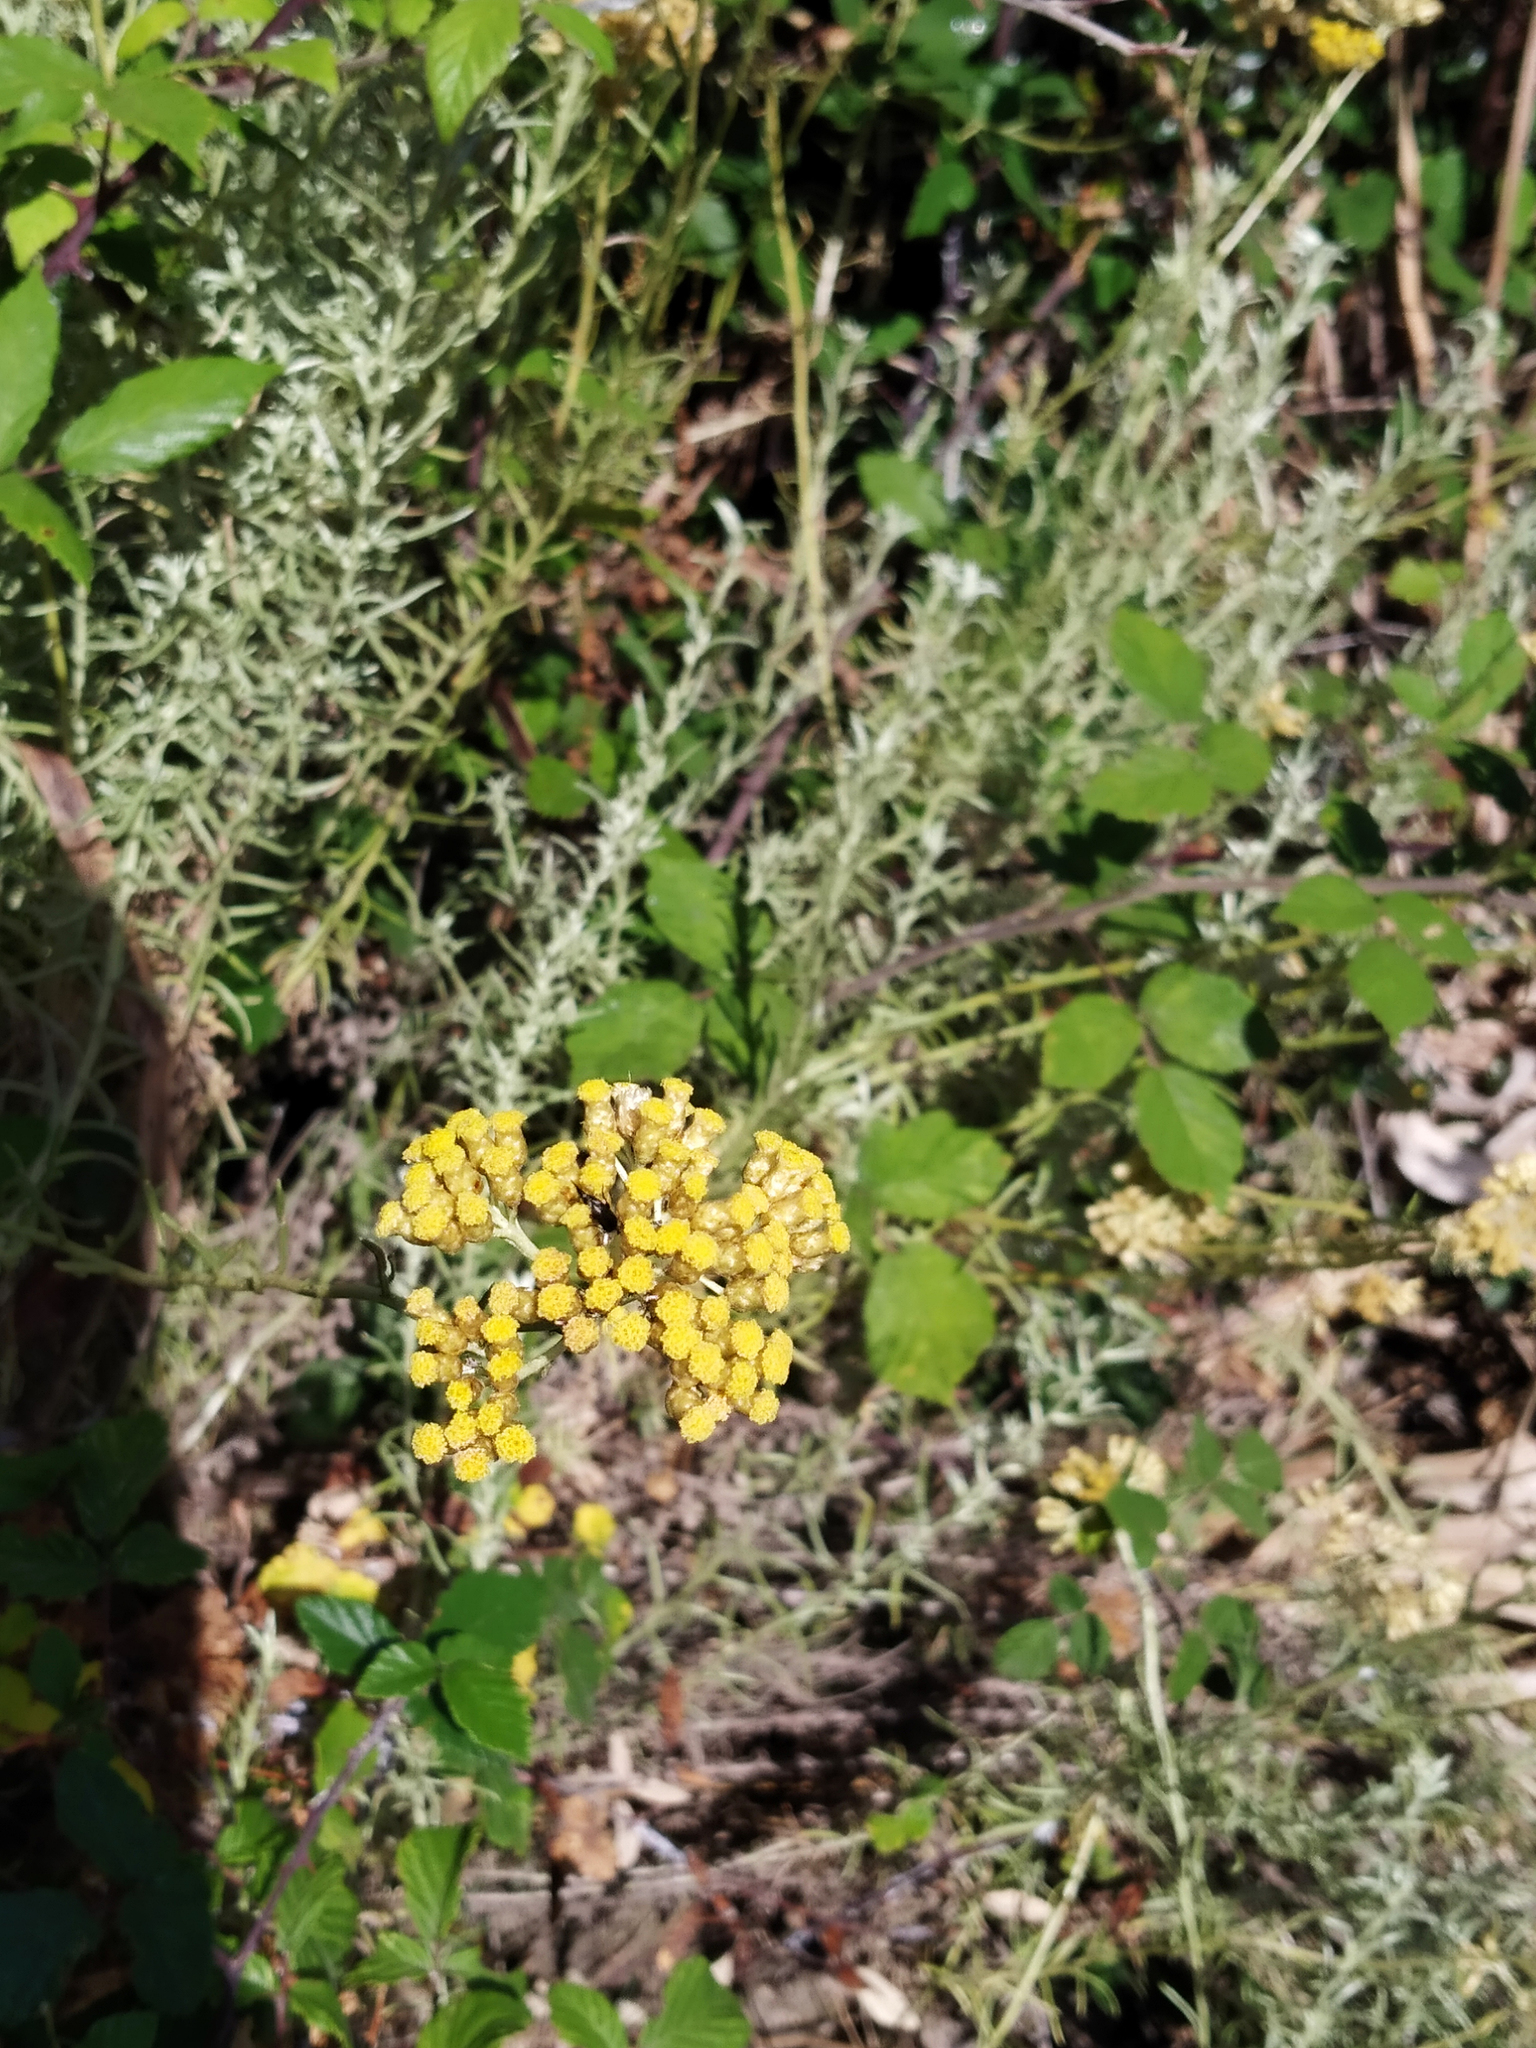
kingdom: Plantae
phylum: Tracheophyta
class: Magnoliopsida
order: Asterales
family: Asteraceae
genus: Helichrysum
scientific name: Helichrysum italicum
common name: Curryplant
